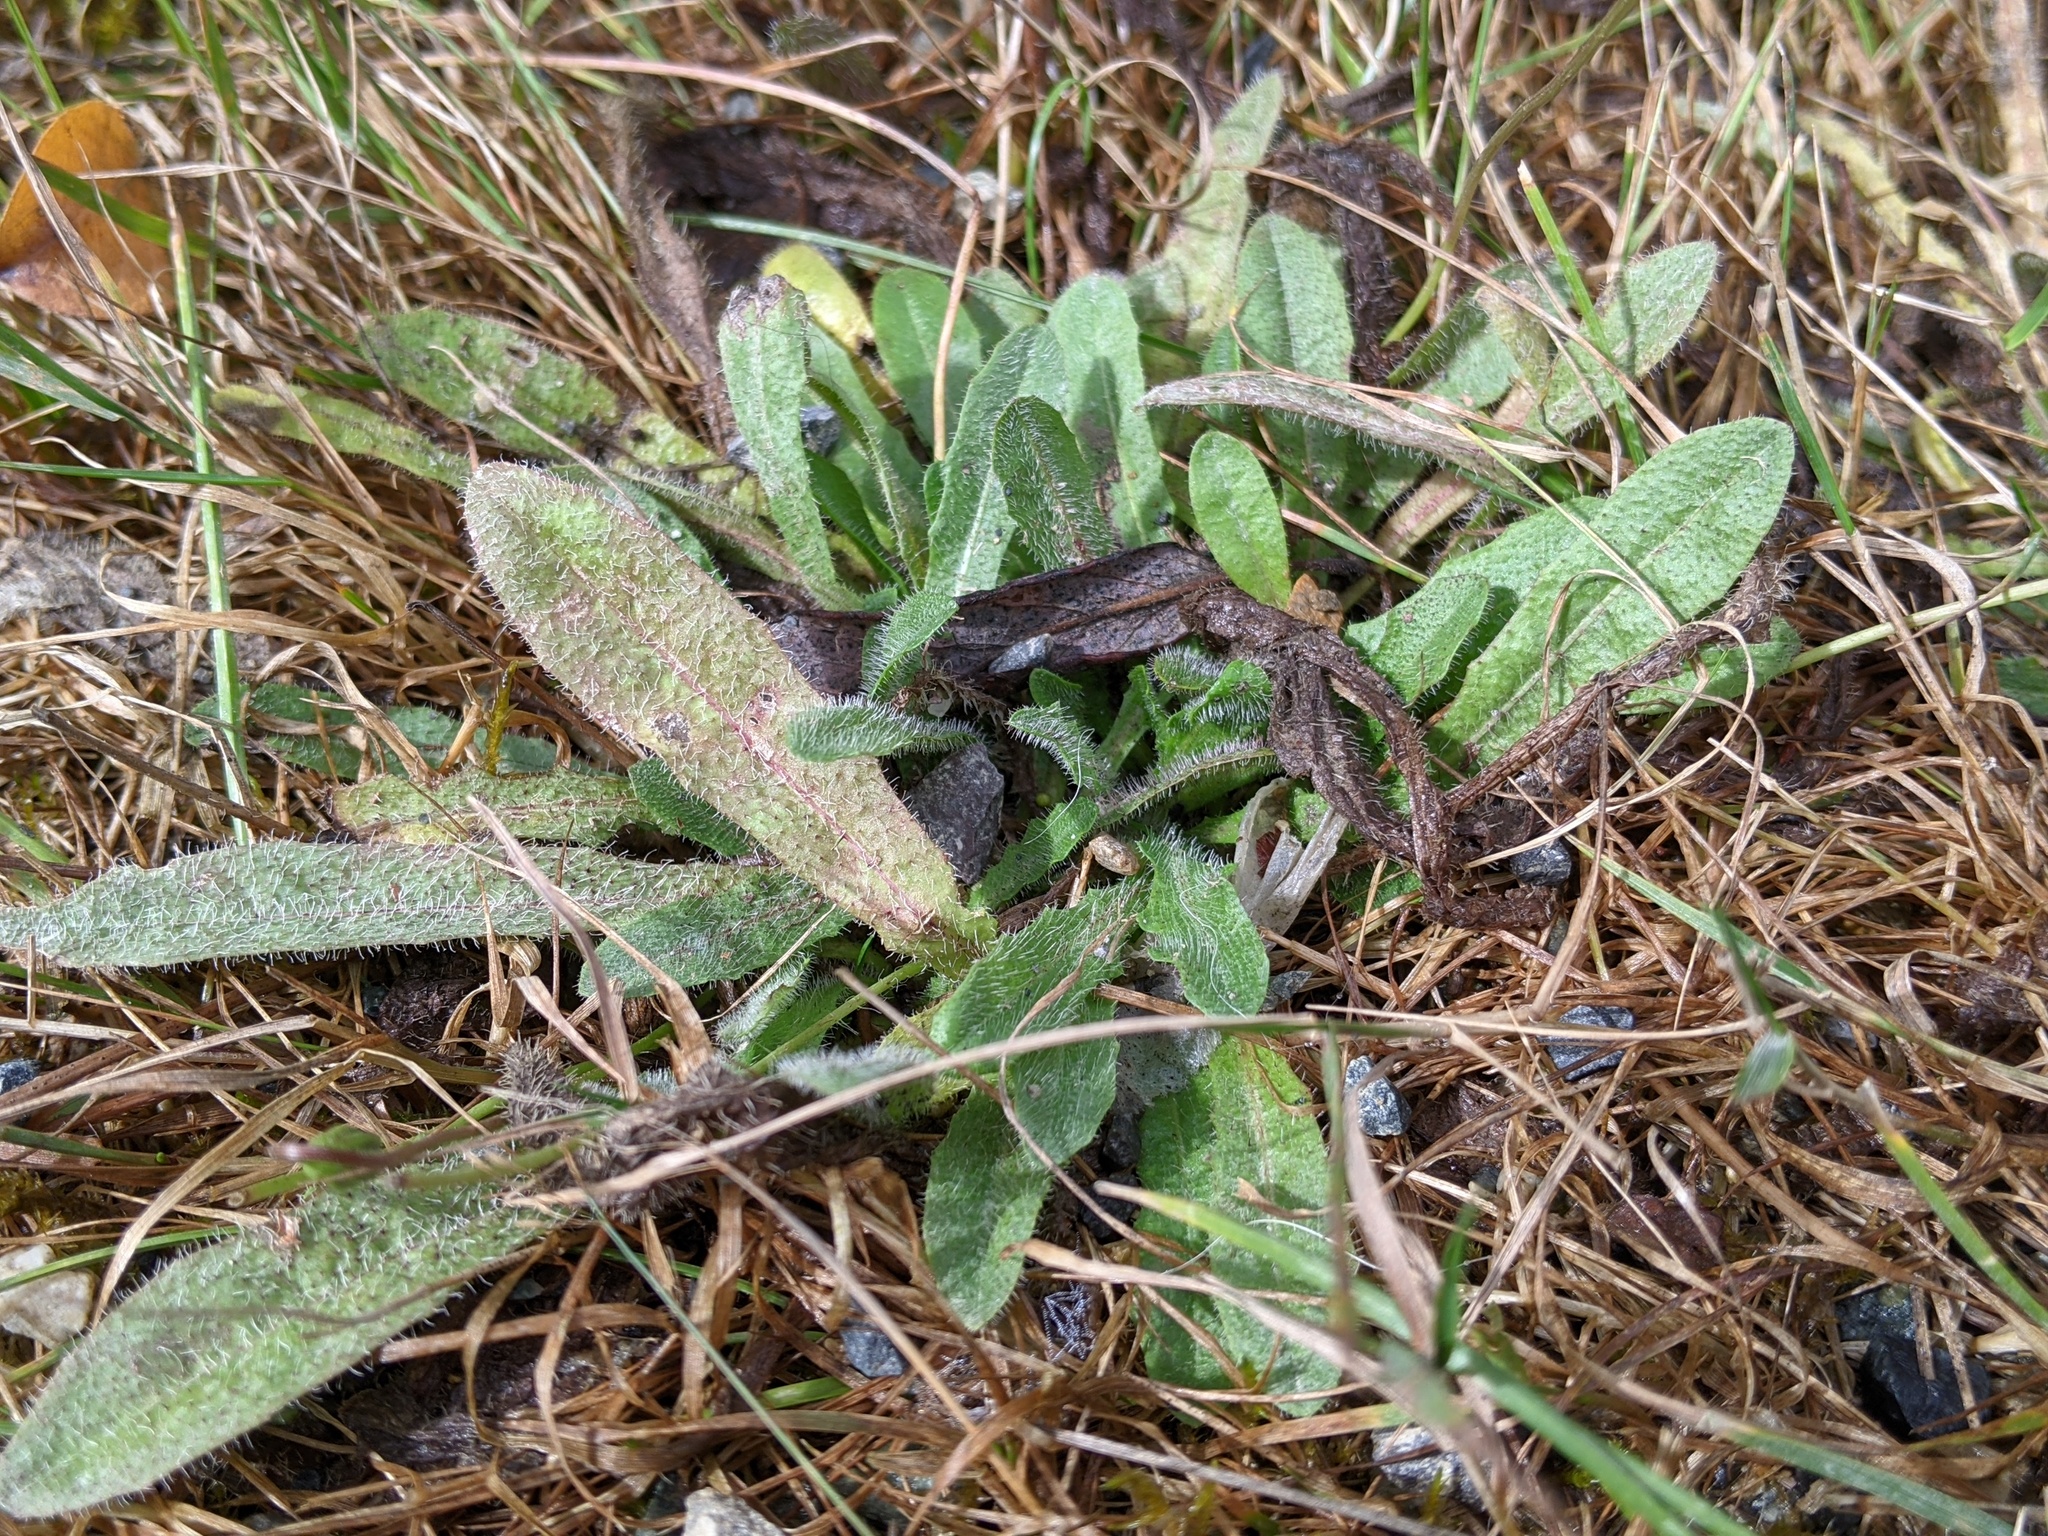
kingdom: Plantae
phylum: Tracheophyta
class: Magnoliopsida
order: Asterales
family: Asteraceae
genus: Hypochaeris
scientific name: Hypochaeris radicata
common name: Flatweed
